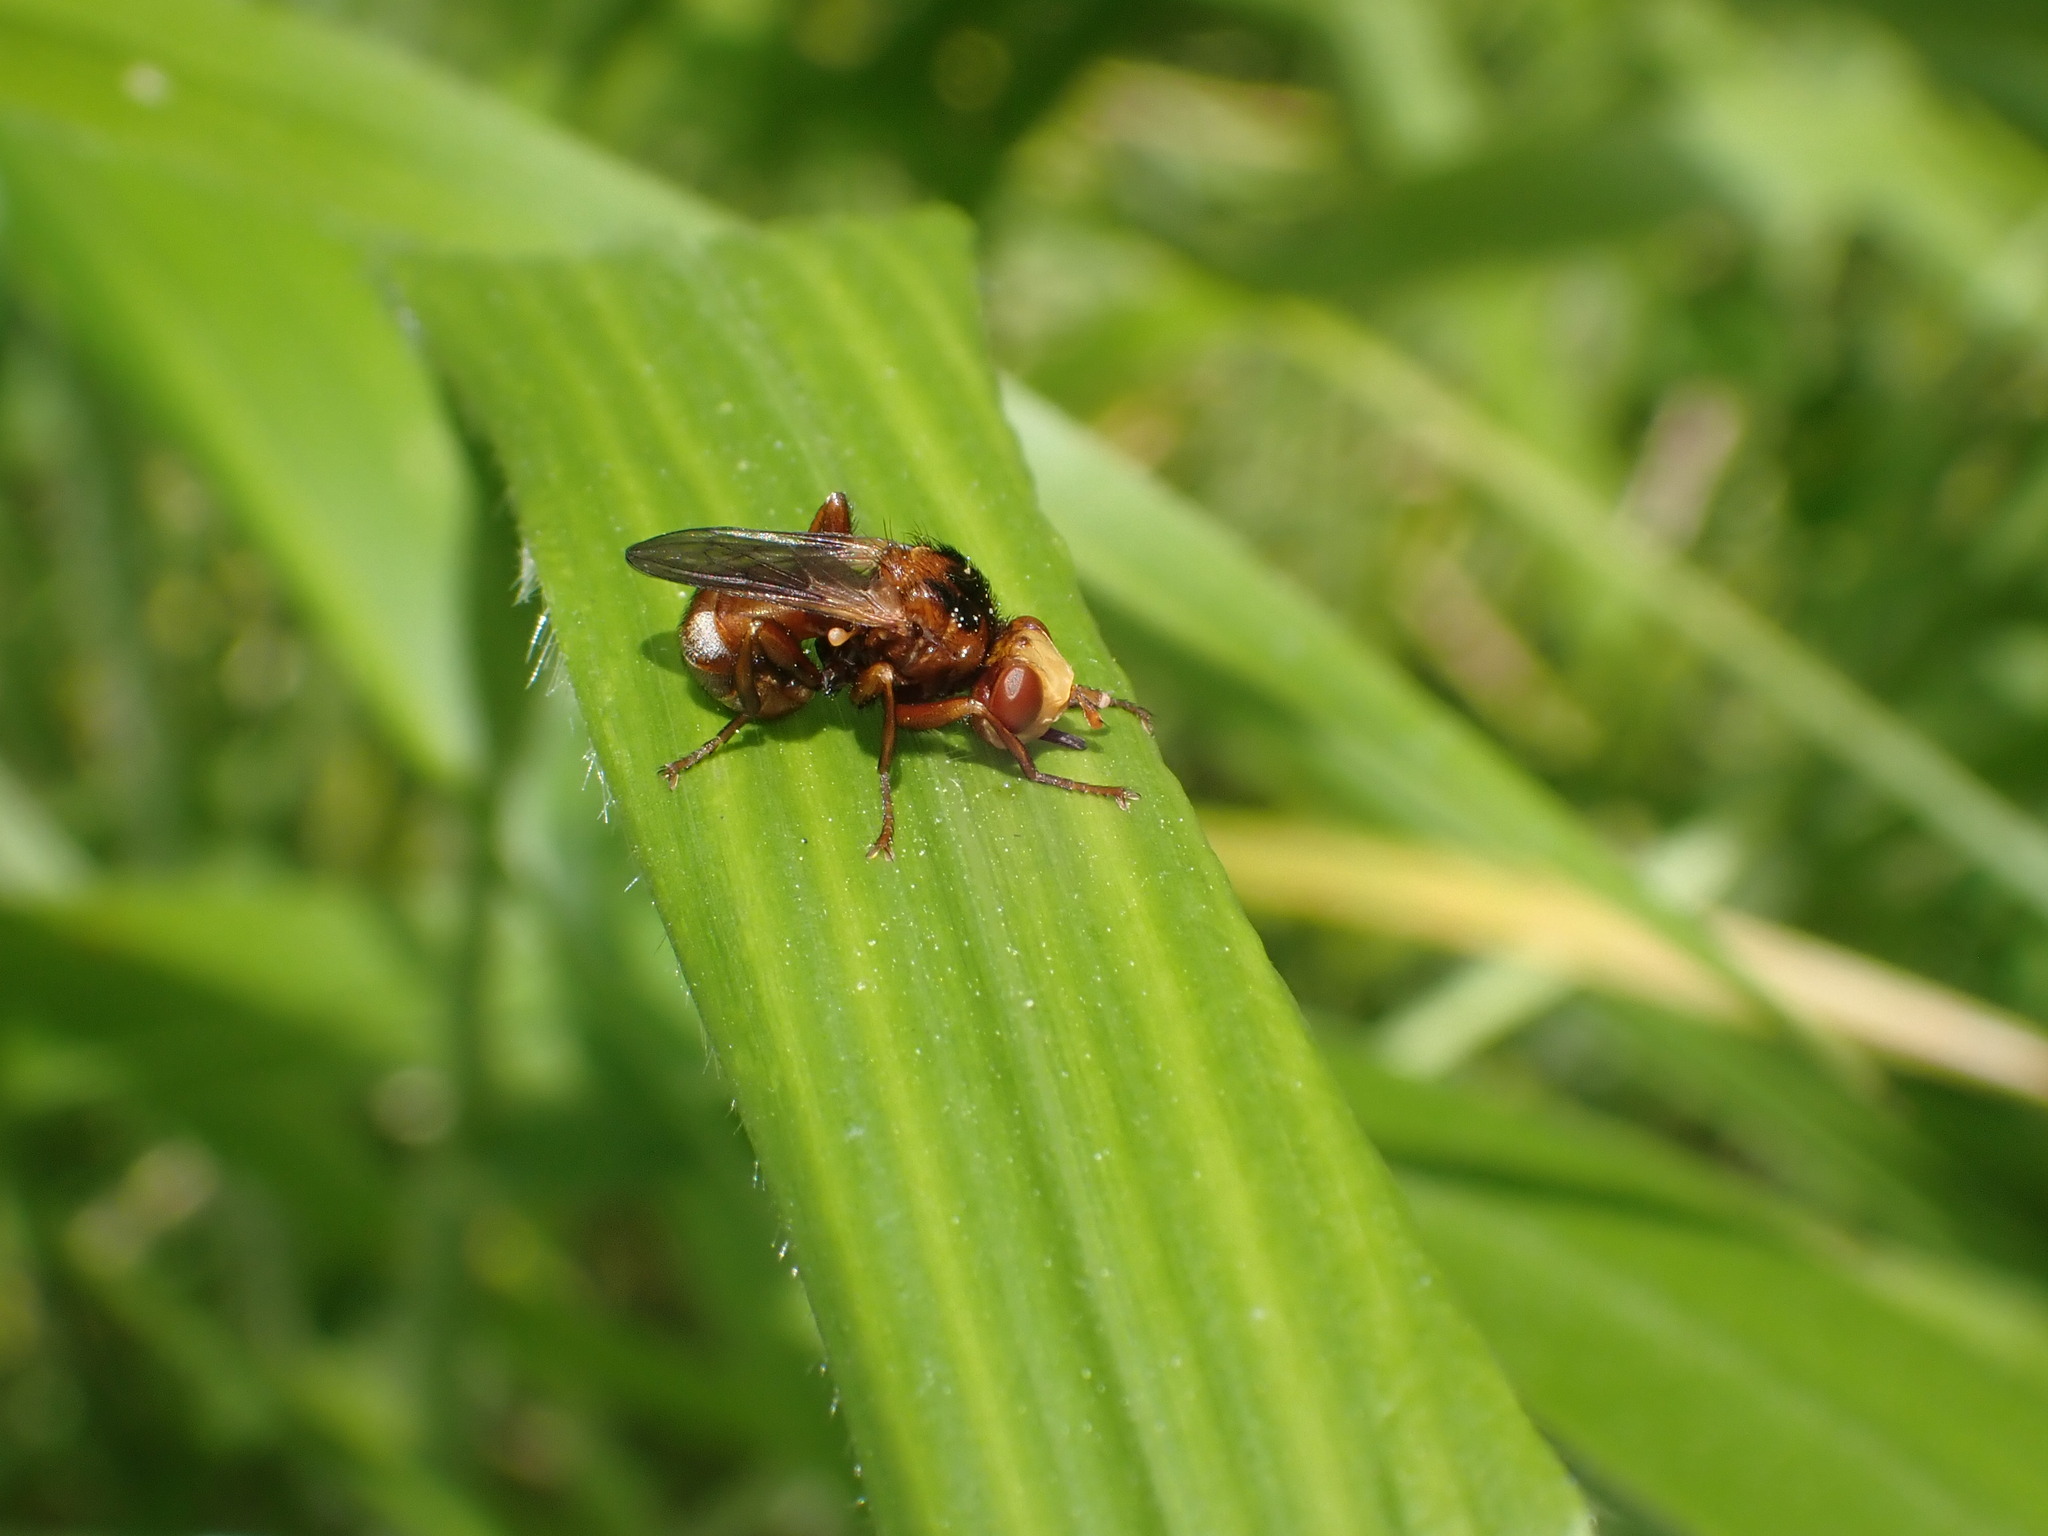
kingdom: Animalia
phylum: Arthropoda
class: Insecta
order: Diptera
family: Conopidae
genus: Sicus
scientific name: Sicus ferrugineus
